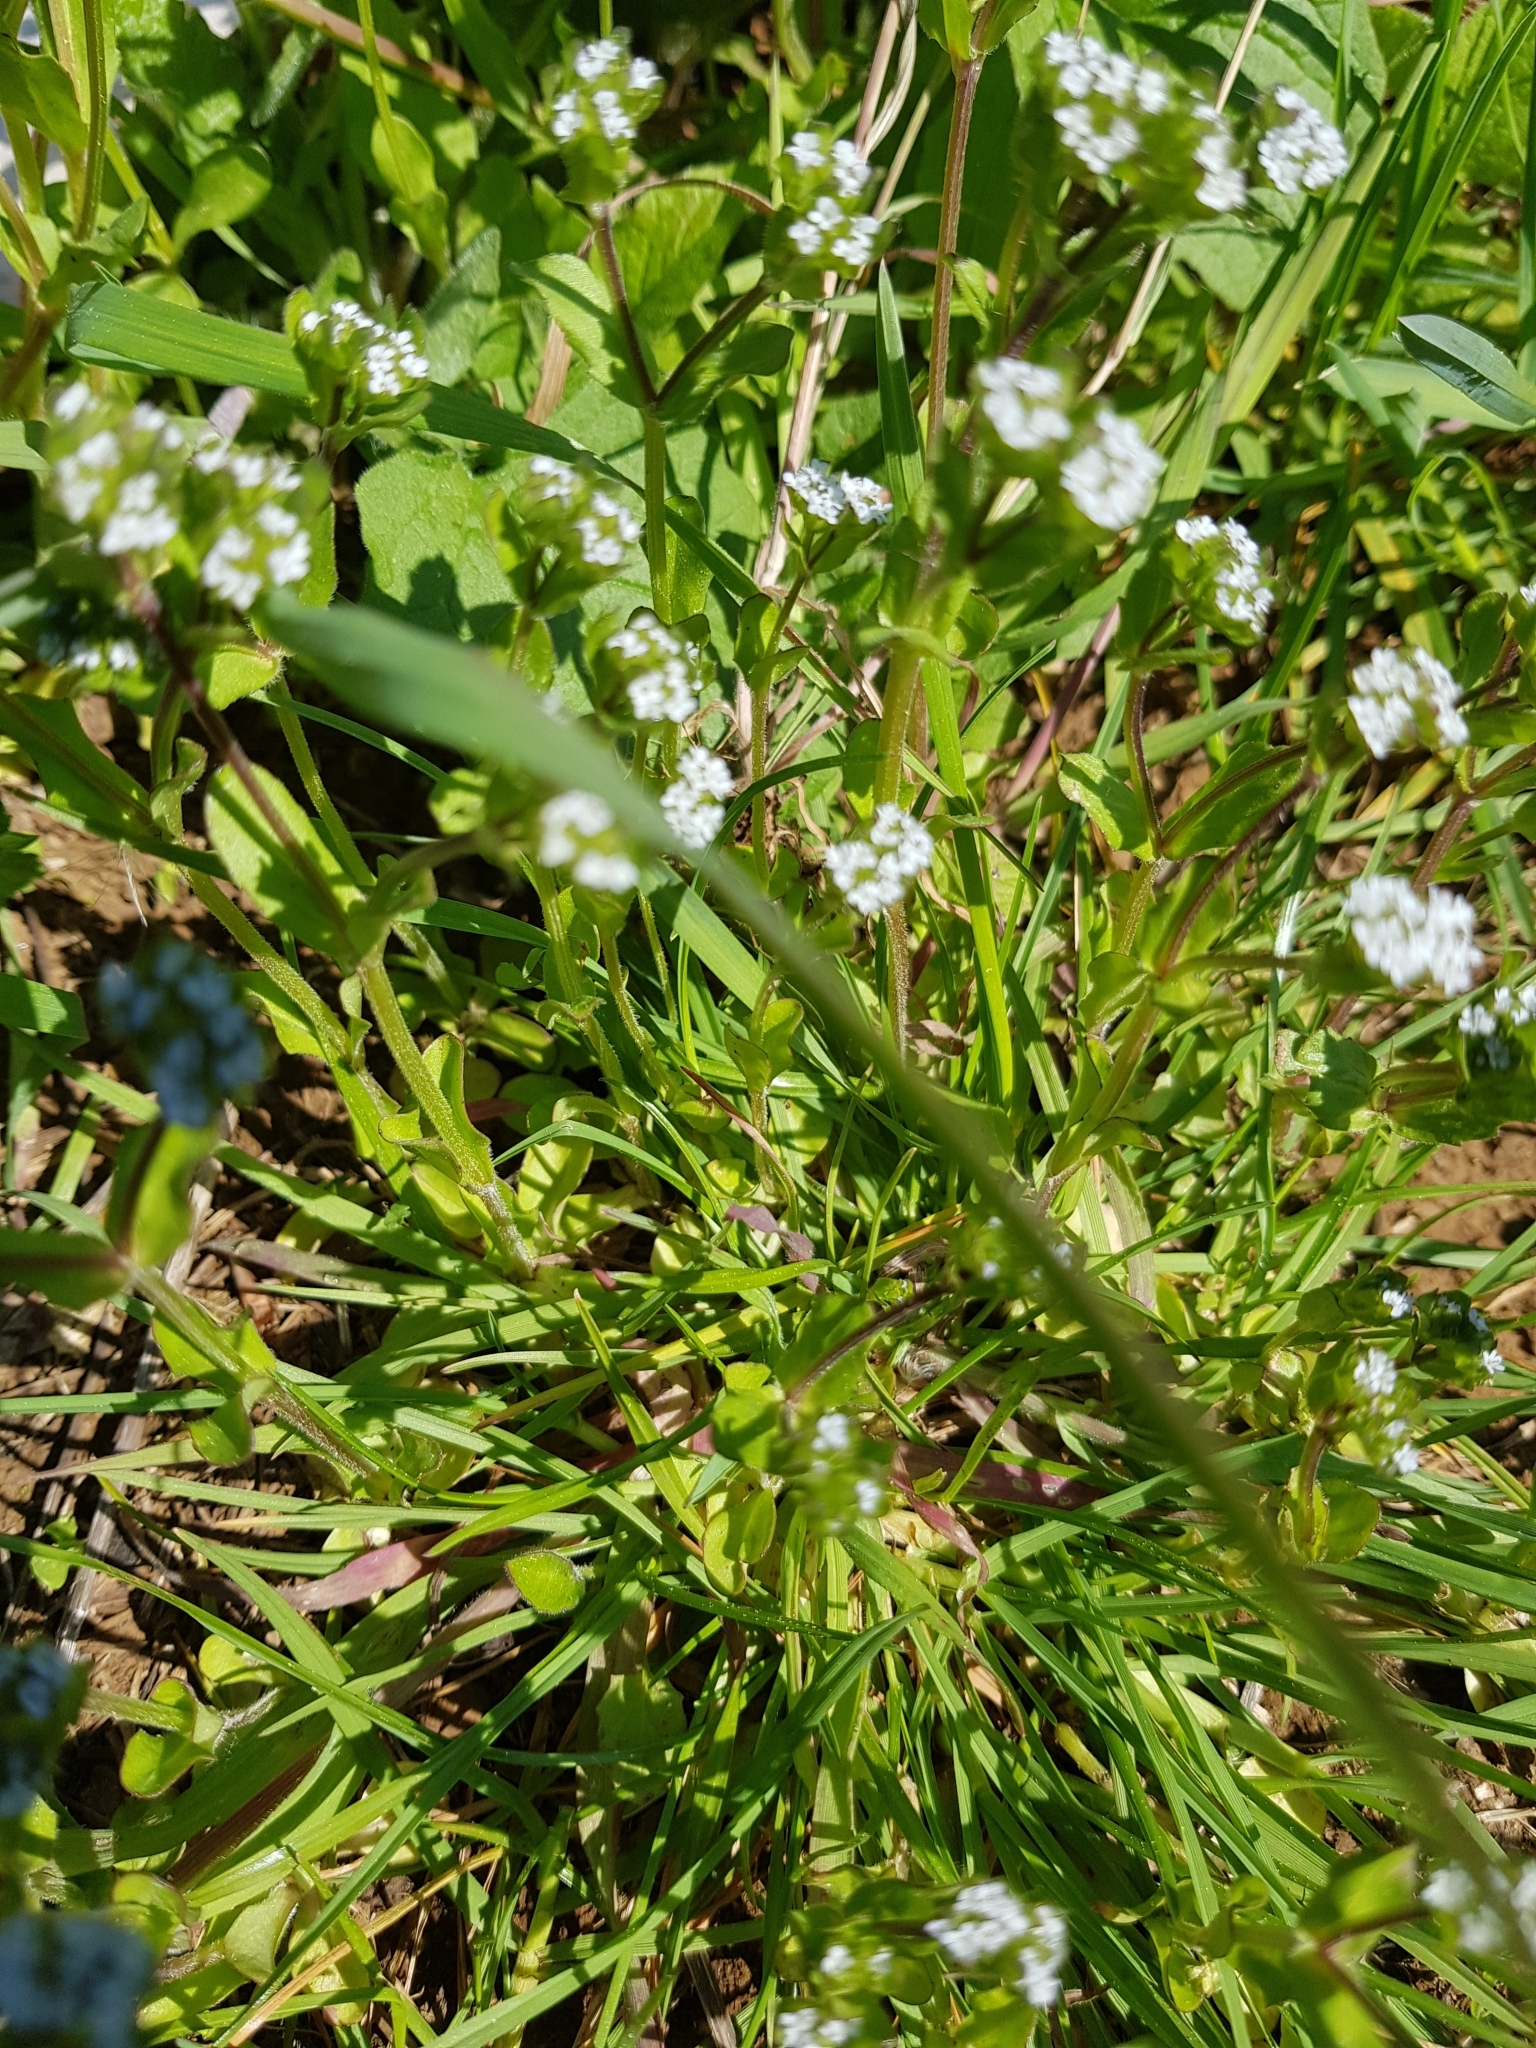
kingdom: Plantae
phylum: Tracheophyta
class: Magnoliopsida
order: Dipsacales
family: Caprifoliaceae
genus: Valerianella
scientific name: Valerianella locusta
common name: Common cornsalad
